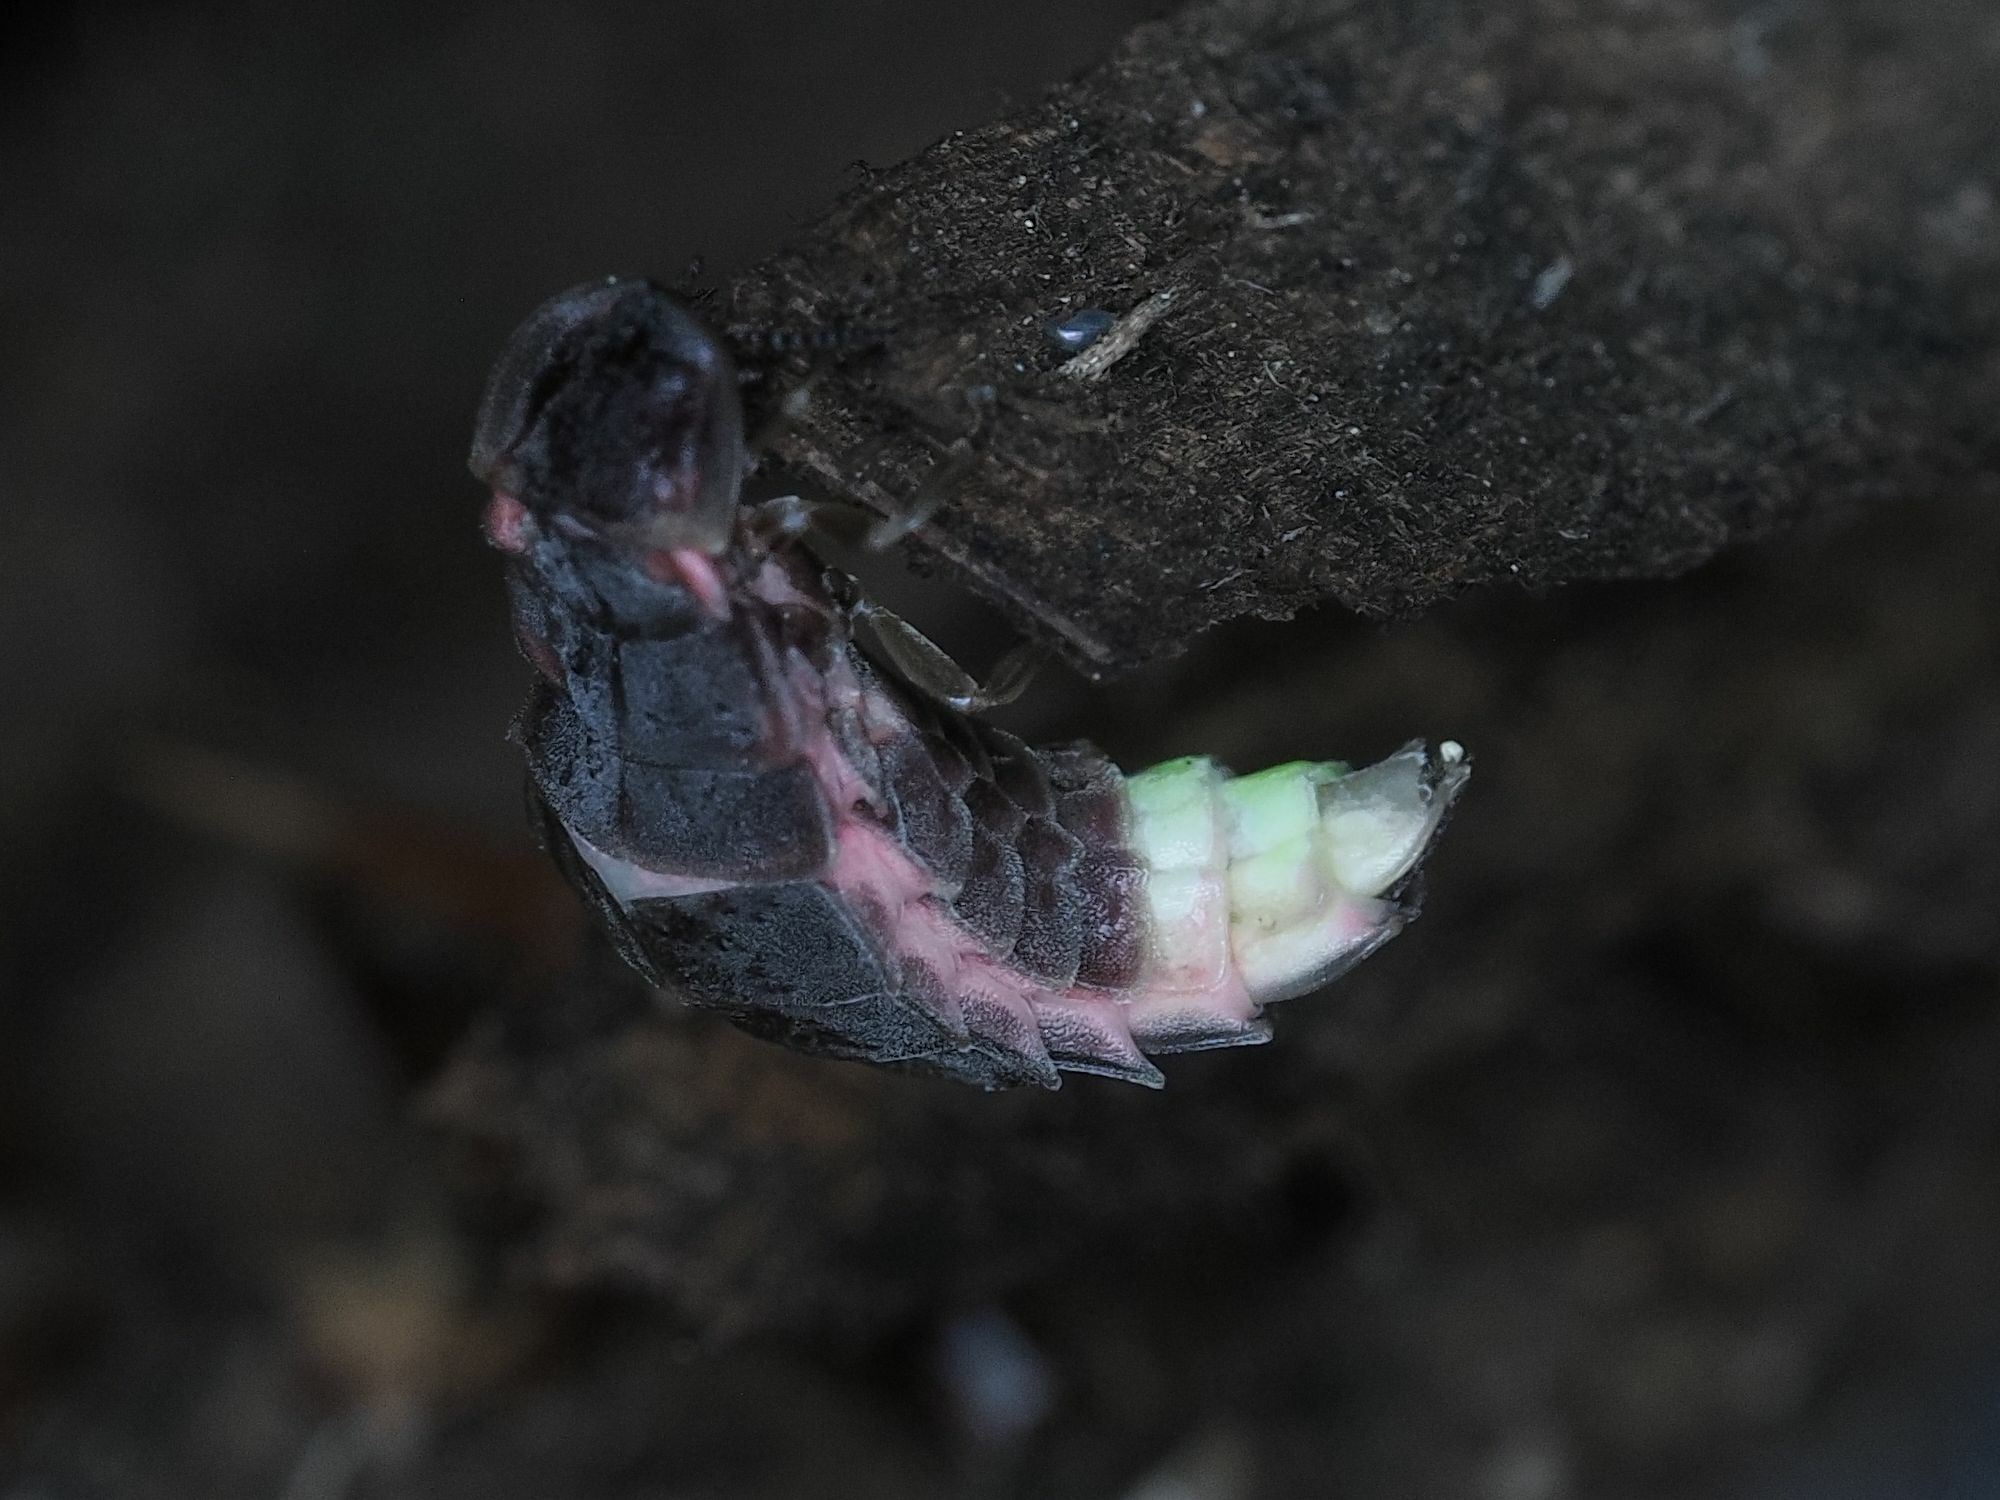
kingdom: Animalia
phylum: Arthropoda
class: Insecta
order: Coleoptera
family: Lampyridae
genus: Lampyris
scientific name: Lampyris noctiluca
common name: Glow-worm
